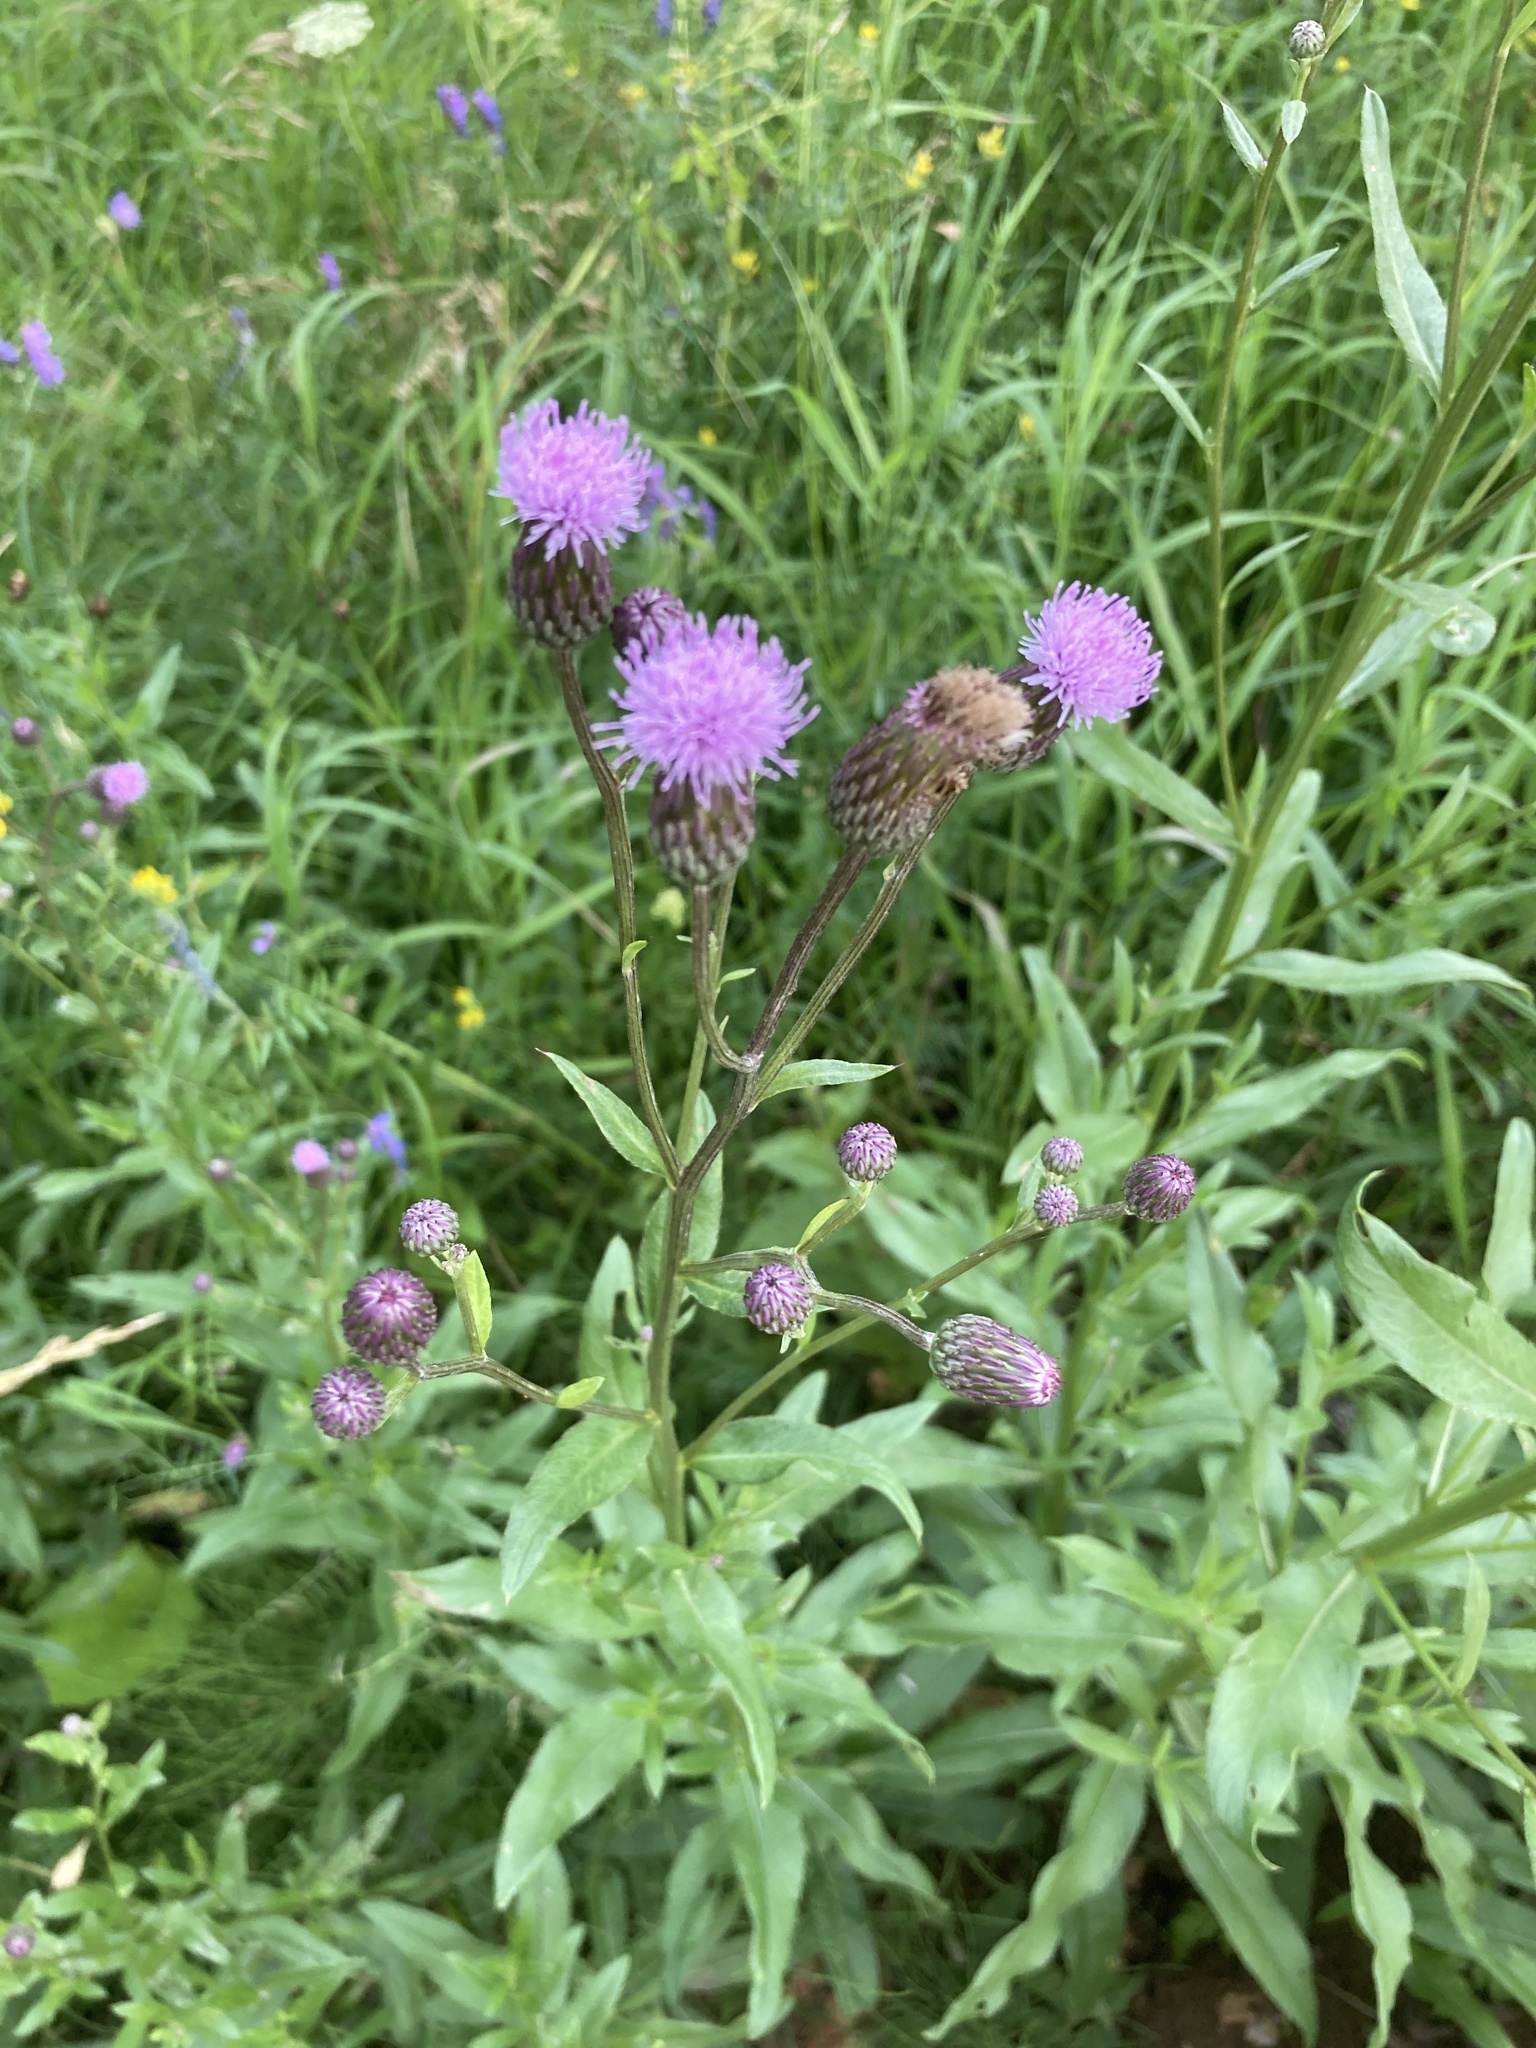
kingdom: Plantae
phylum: Tracheophyta
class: Magnoliopsida
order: Asterales
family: Asteraceae
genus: Cirsium
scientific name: Cirsium arvense
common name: Creeping thistle
